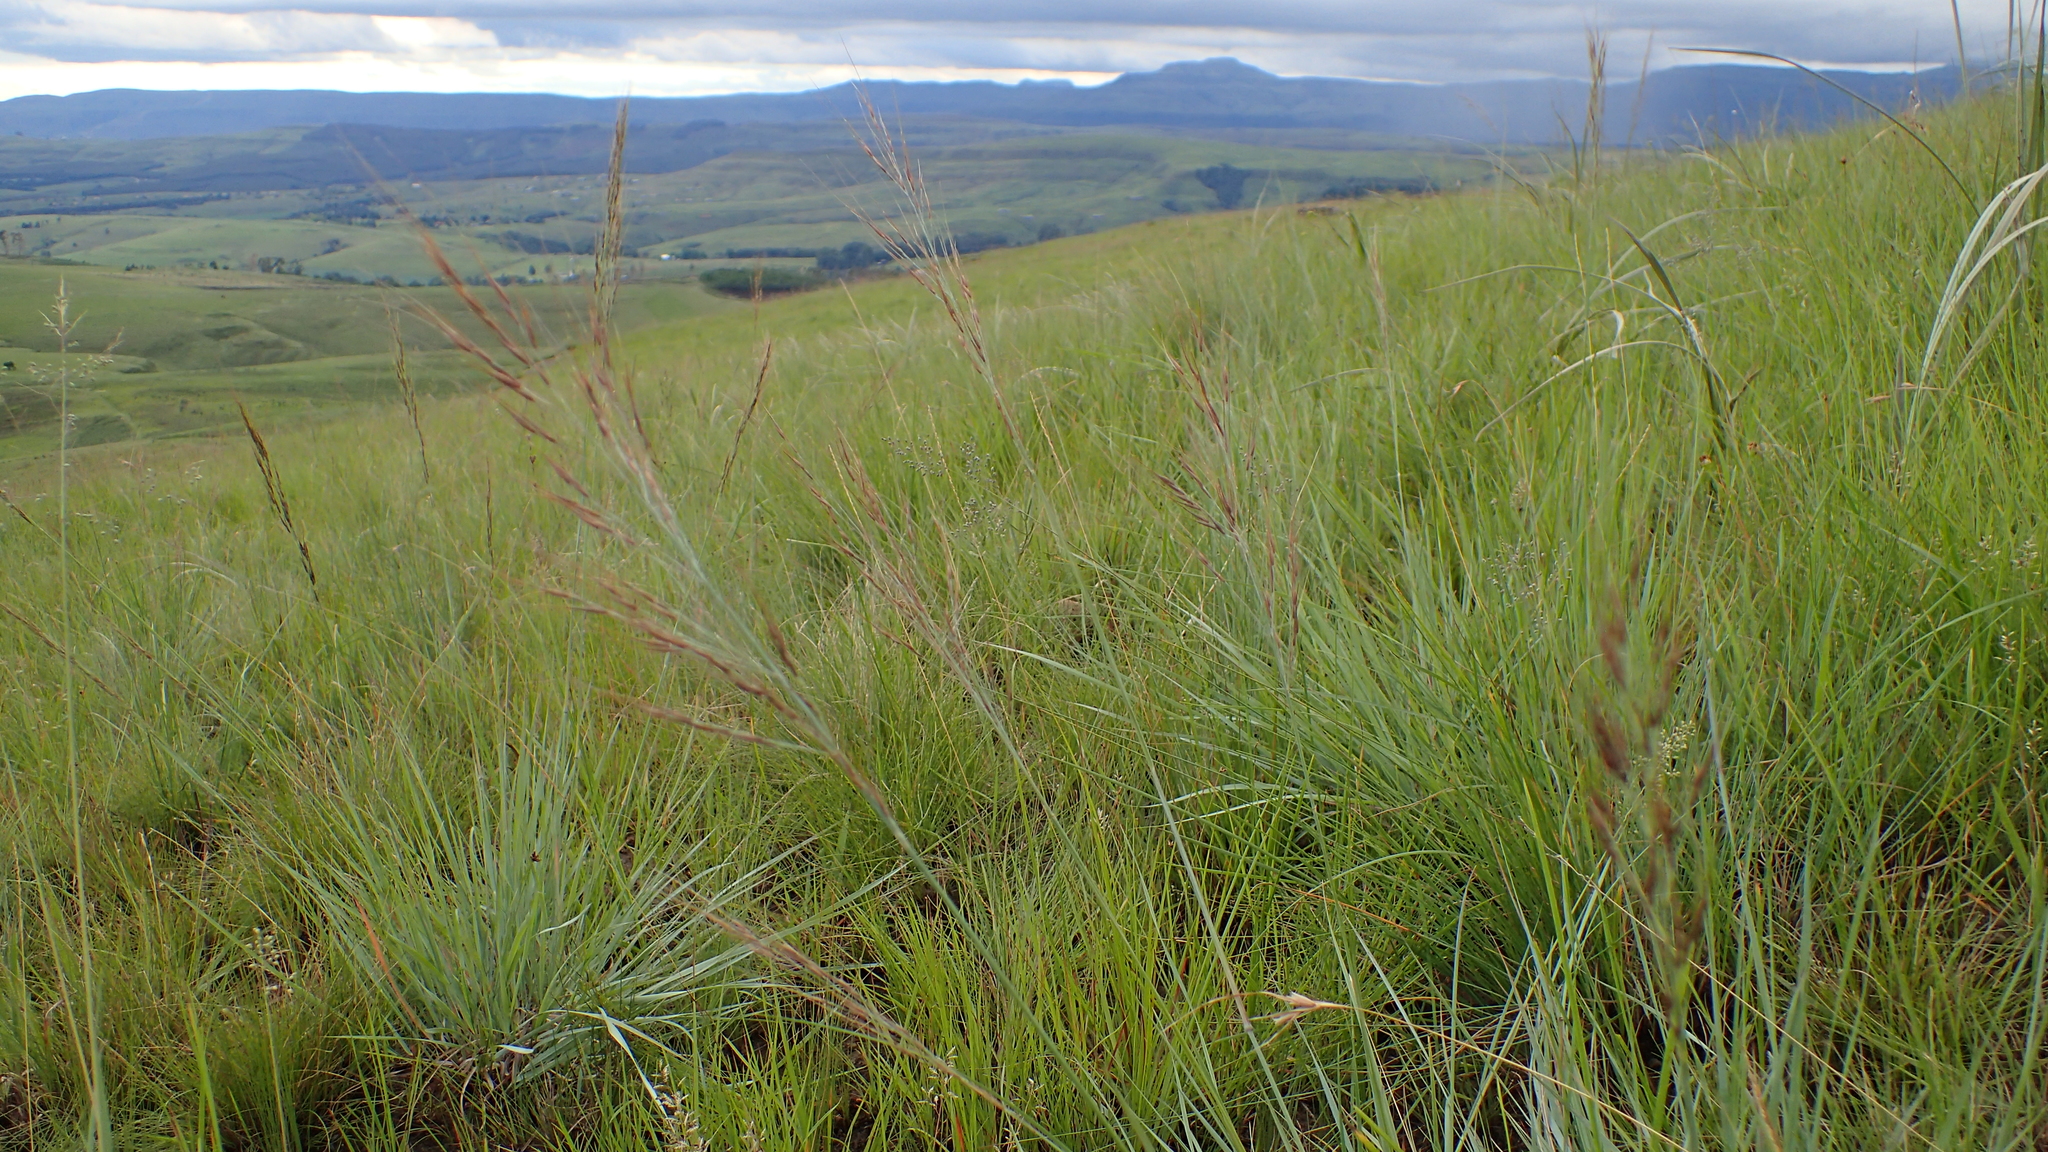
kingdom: Plantae
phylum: Tracheophyta
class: Liliopsida
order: Poales
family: Poaceae
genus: Loudetia
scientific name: Loudetia simplex
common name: Common russet grass
